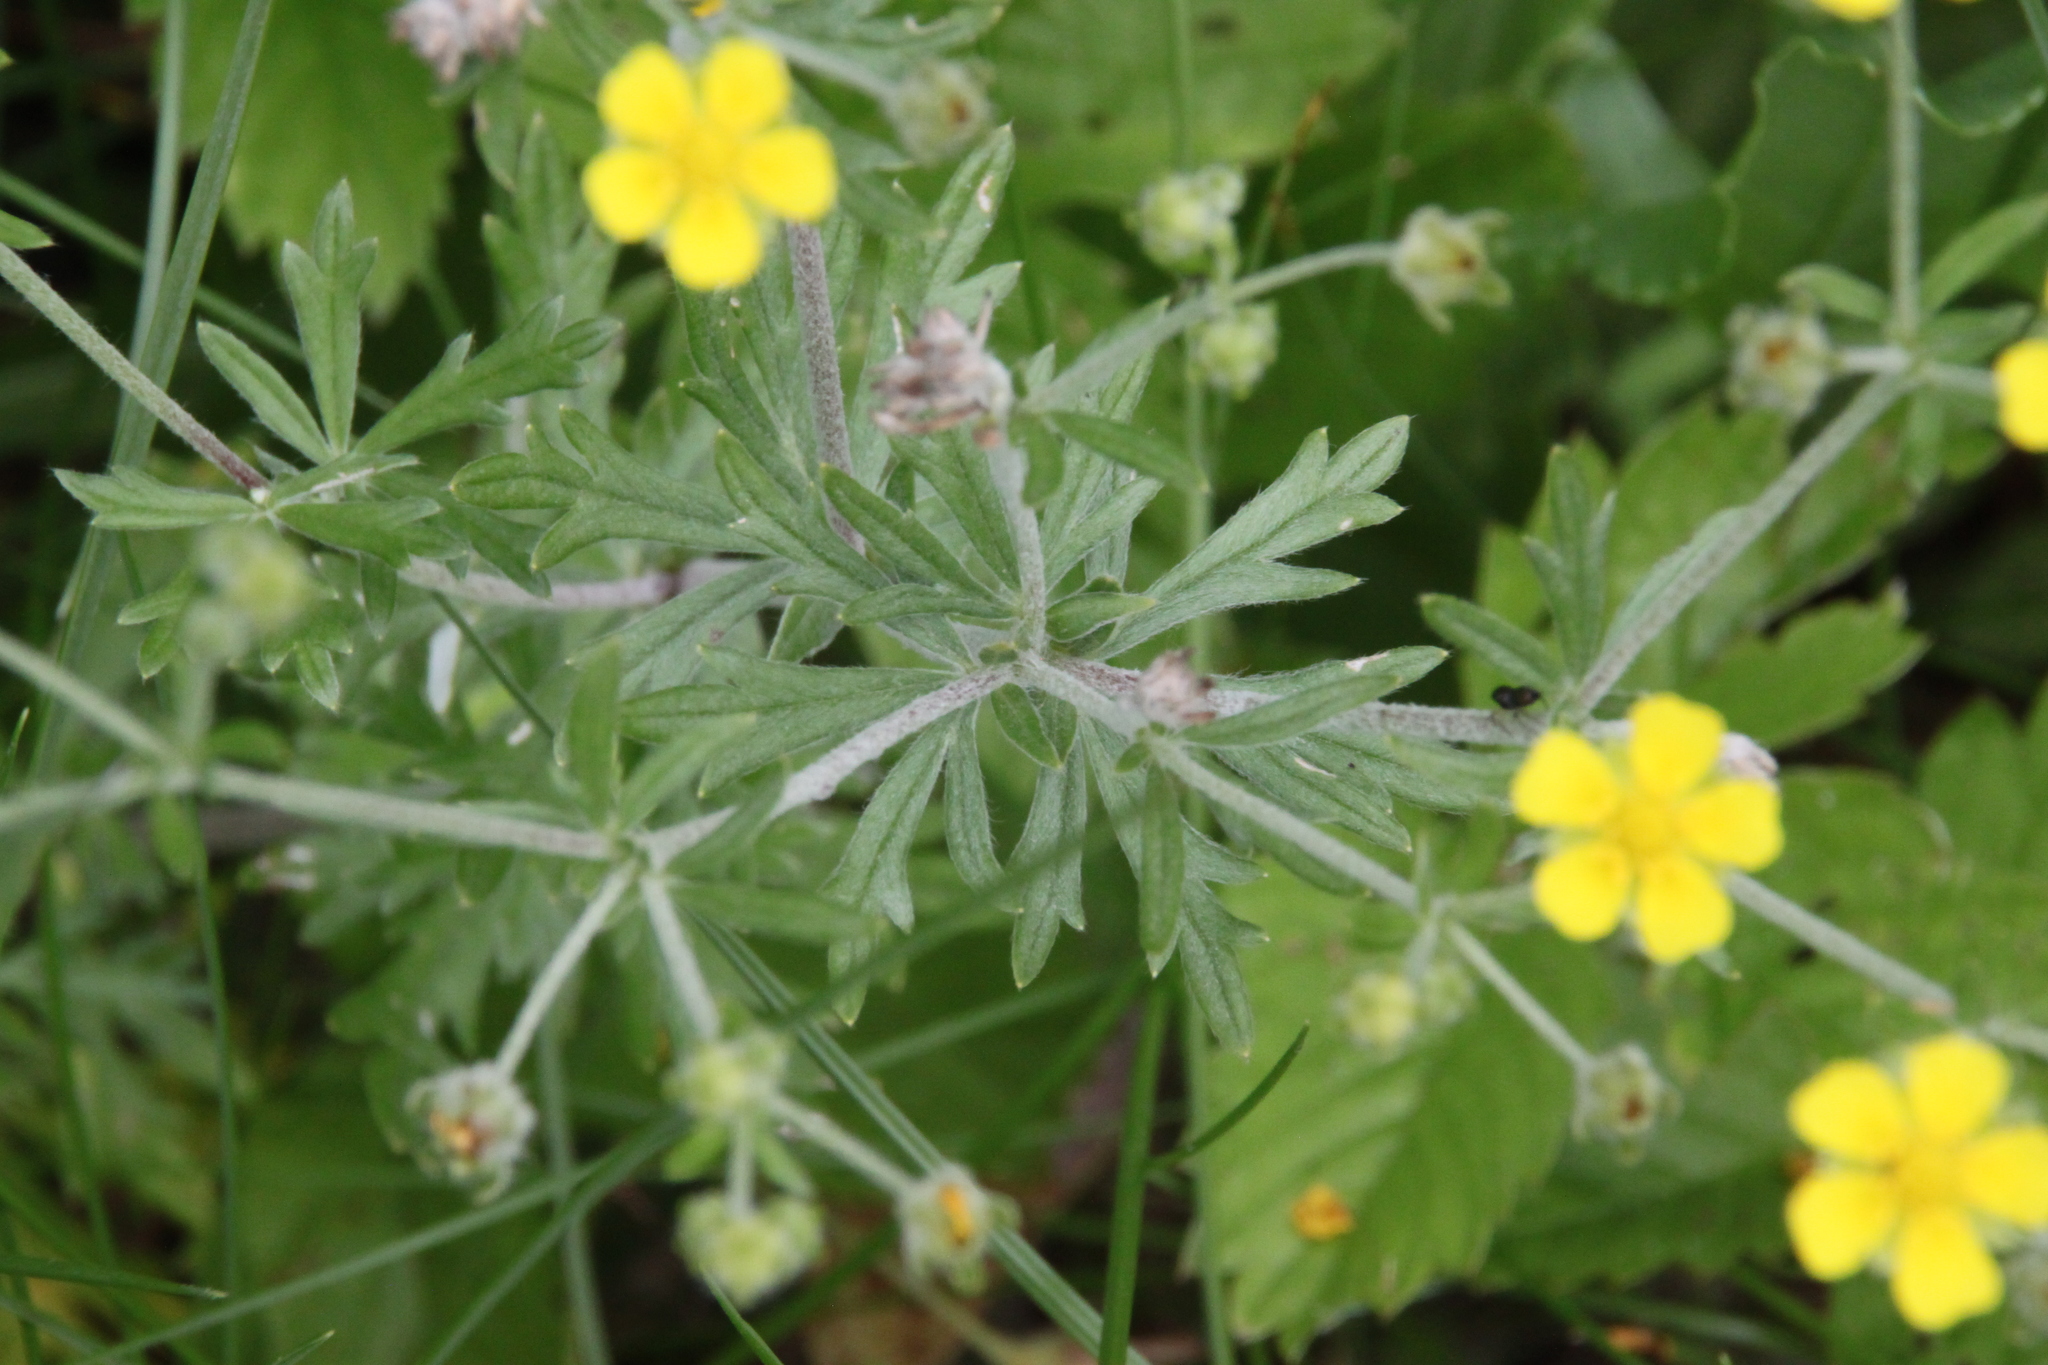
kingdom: Plantae
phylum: Tracheophyta
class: Magnoliopsida
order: Rosales
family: Rosaceae
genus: Potentilla
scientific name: Potentilla argentea
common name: Hoary cinquefoil
